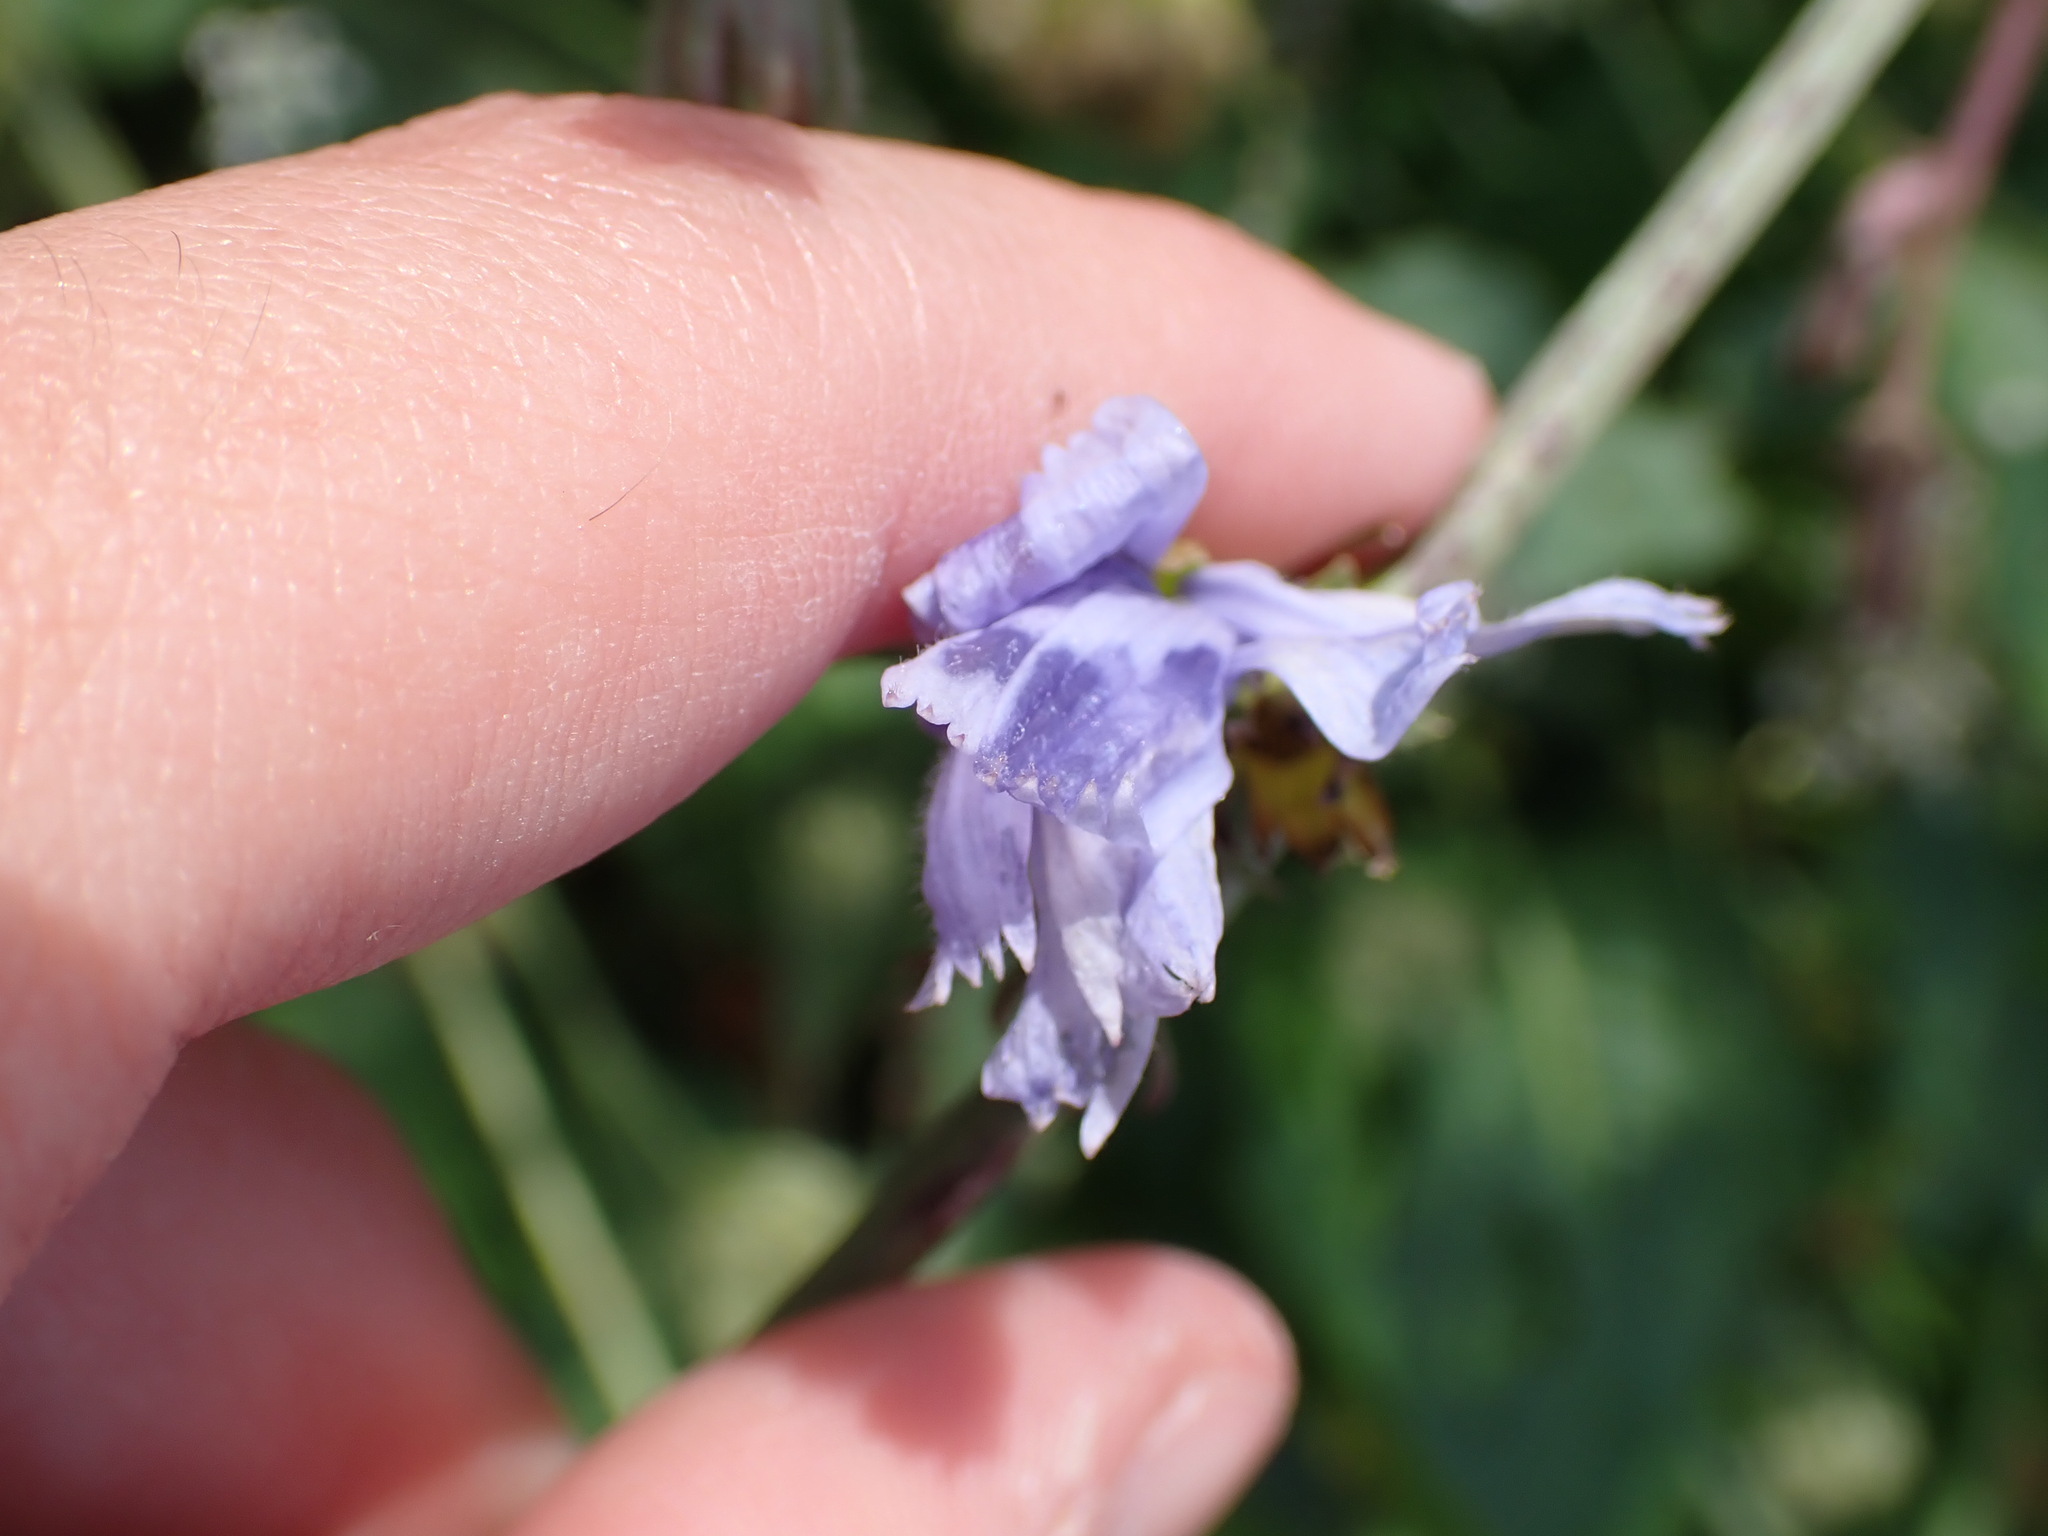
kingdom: Plantae
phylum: Tracheophyta
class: Magnoliopsida
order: Asterales
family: Asteraceae
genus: Cichorium
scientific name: Cichorium intybus
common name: Chicory
